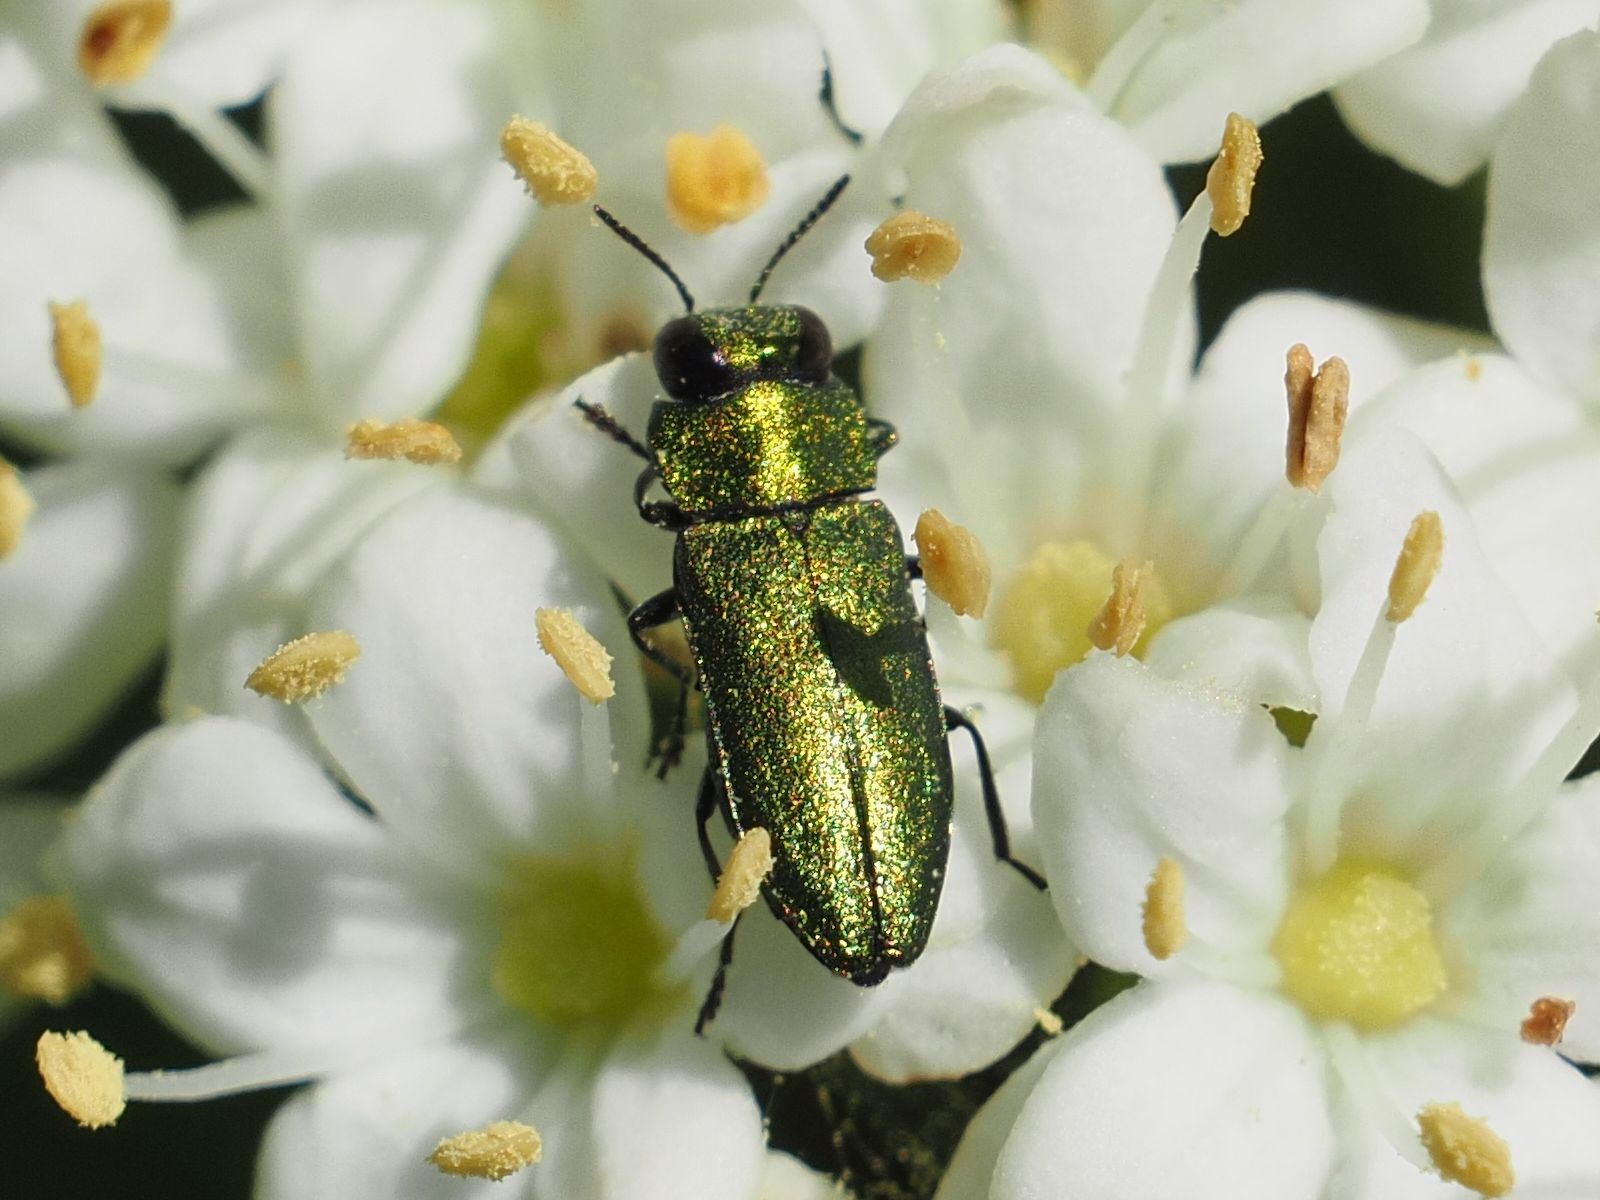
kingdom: Animalia
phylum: Arthropoda
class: Insecta
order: Coleoptera
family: Buprestidae
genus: Anthaxia
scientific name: Anthaxia nitidula
